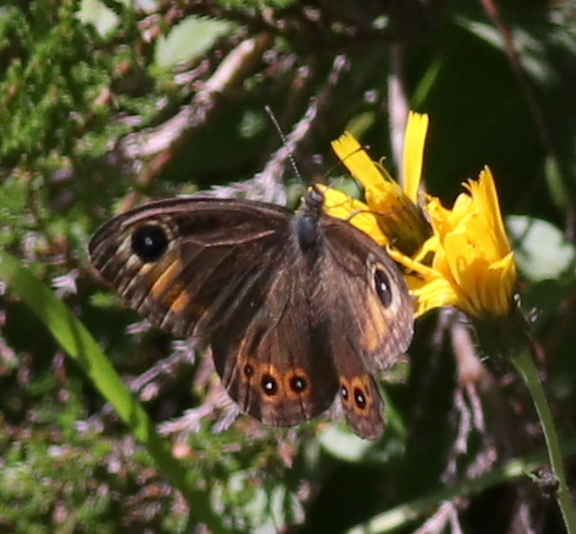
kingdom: Animalia
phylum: Arthropoda
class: Insecta
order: Lepidoptera
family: Nymphalidae
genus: Pararge
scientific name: Pararge Lasiommata maera
